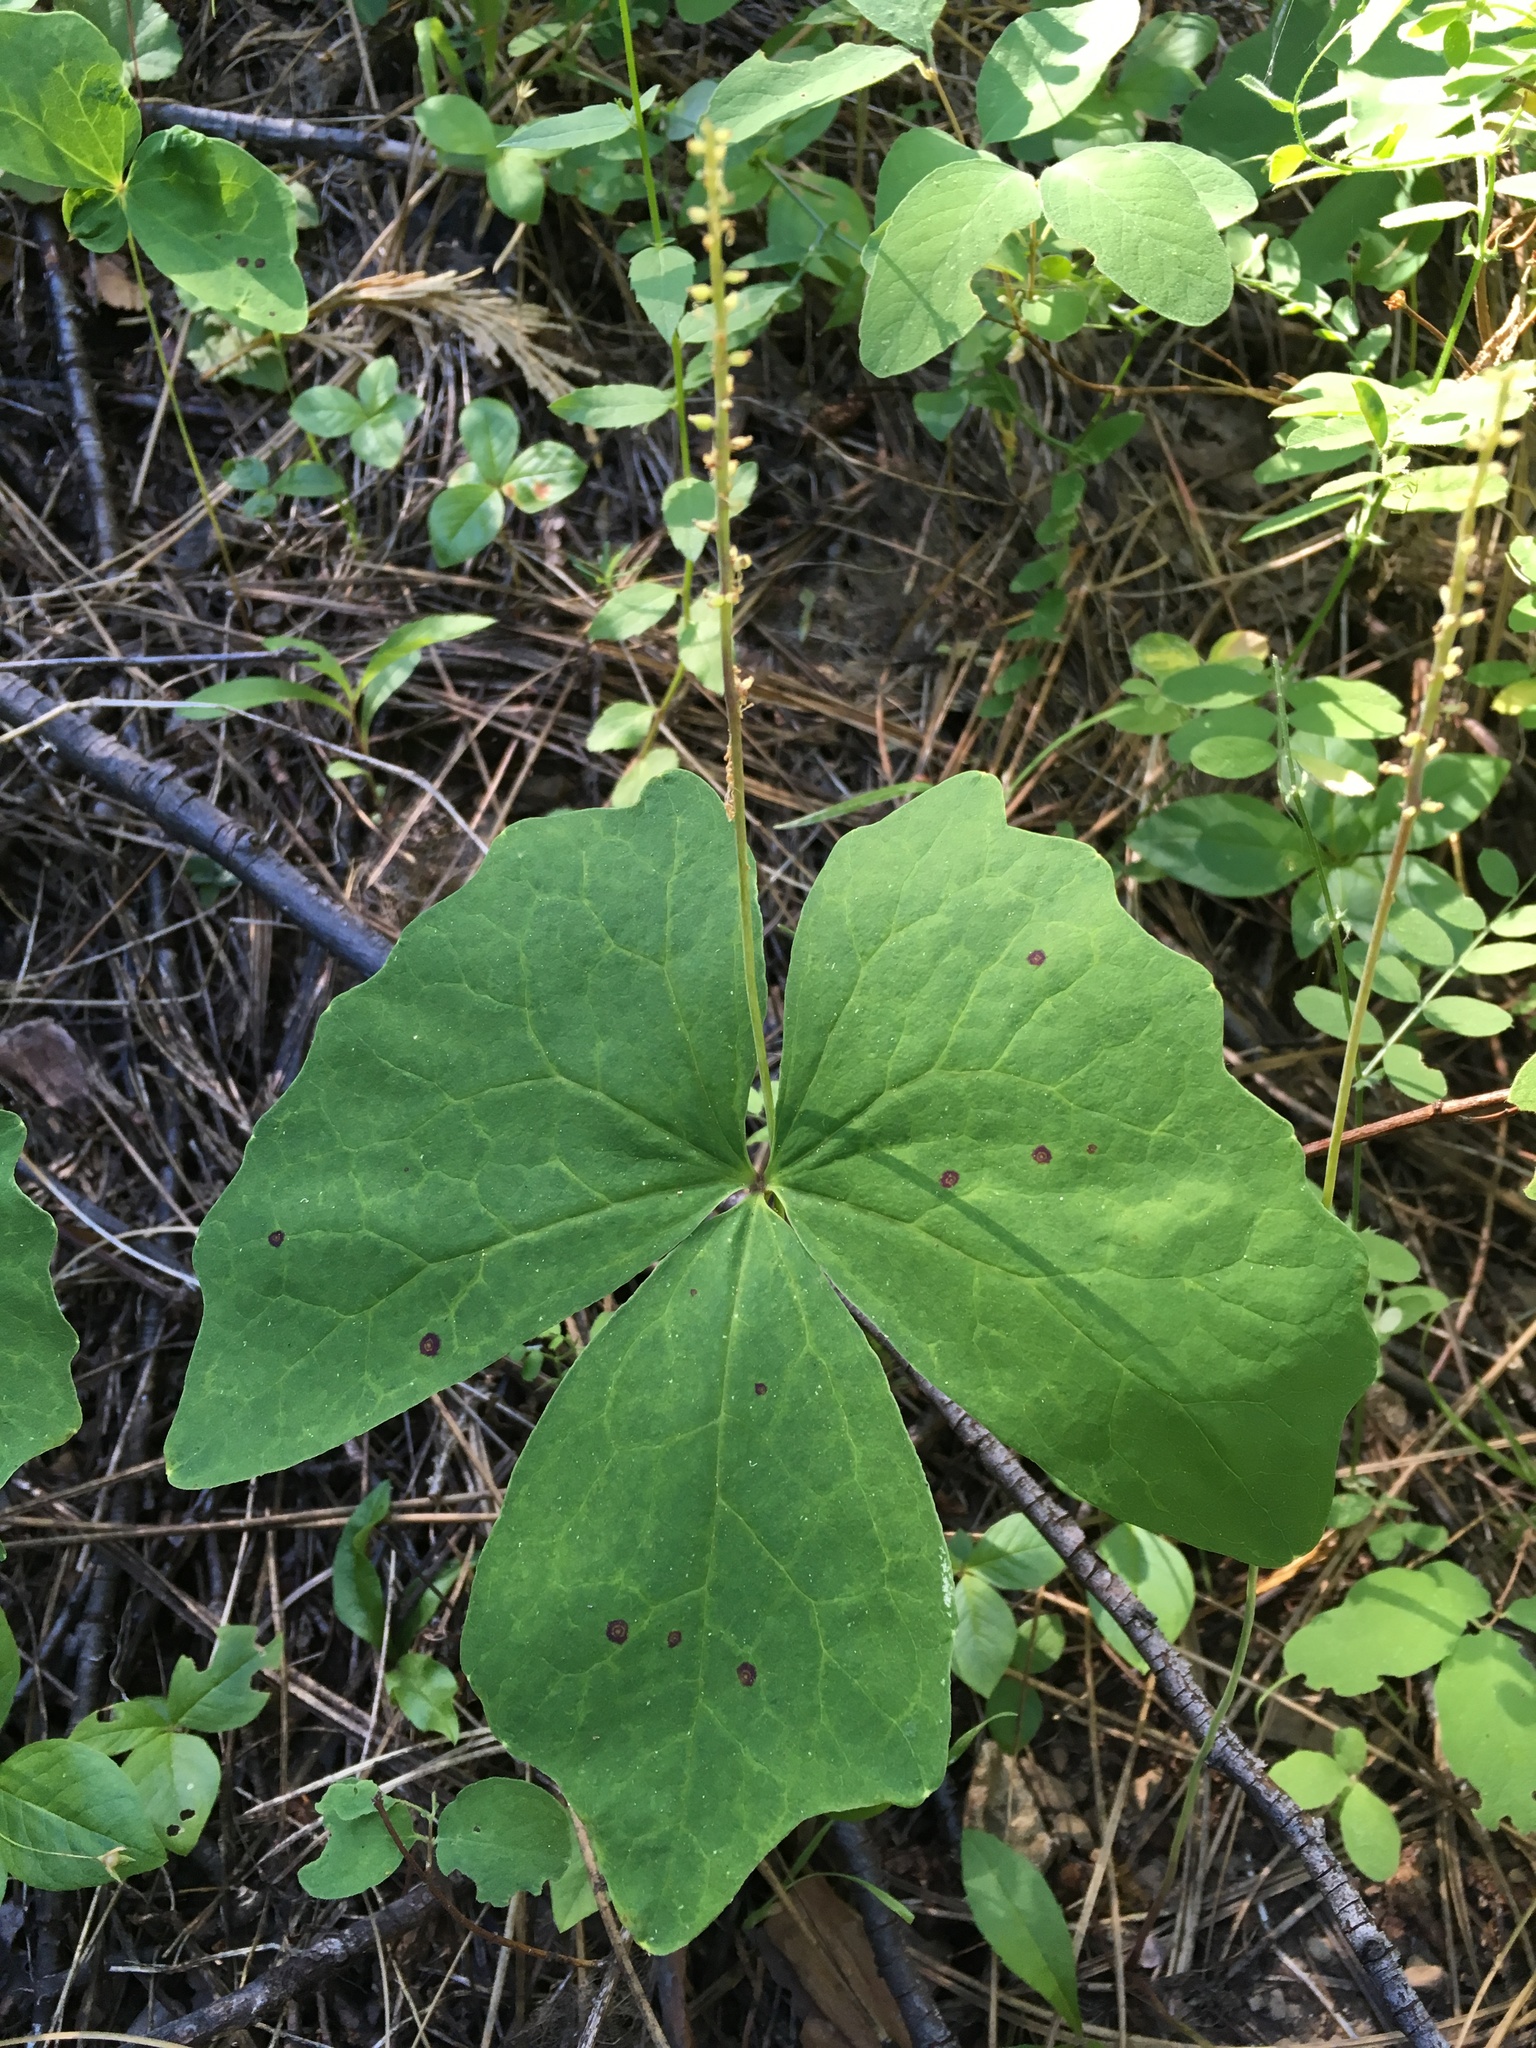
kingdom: Plantae
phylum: Tracheophyta
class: Magnoliopsida
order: Ranunculales
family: Berberidaceae
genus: Achlys
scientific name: Achlys triphylla
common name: Vanilla-leaf
